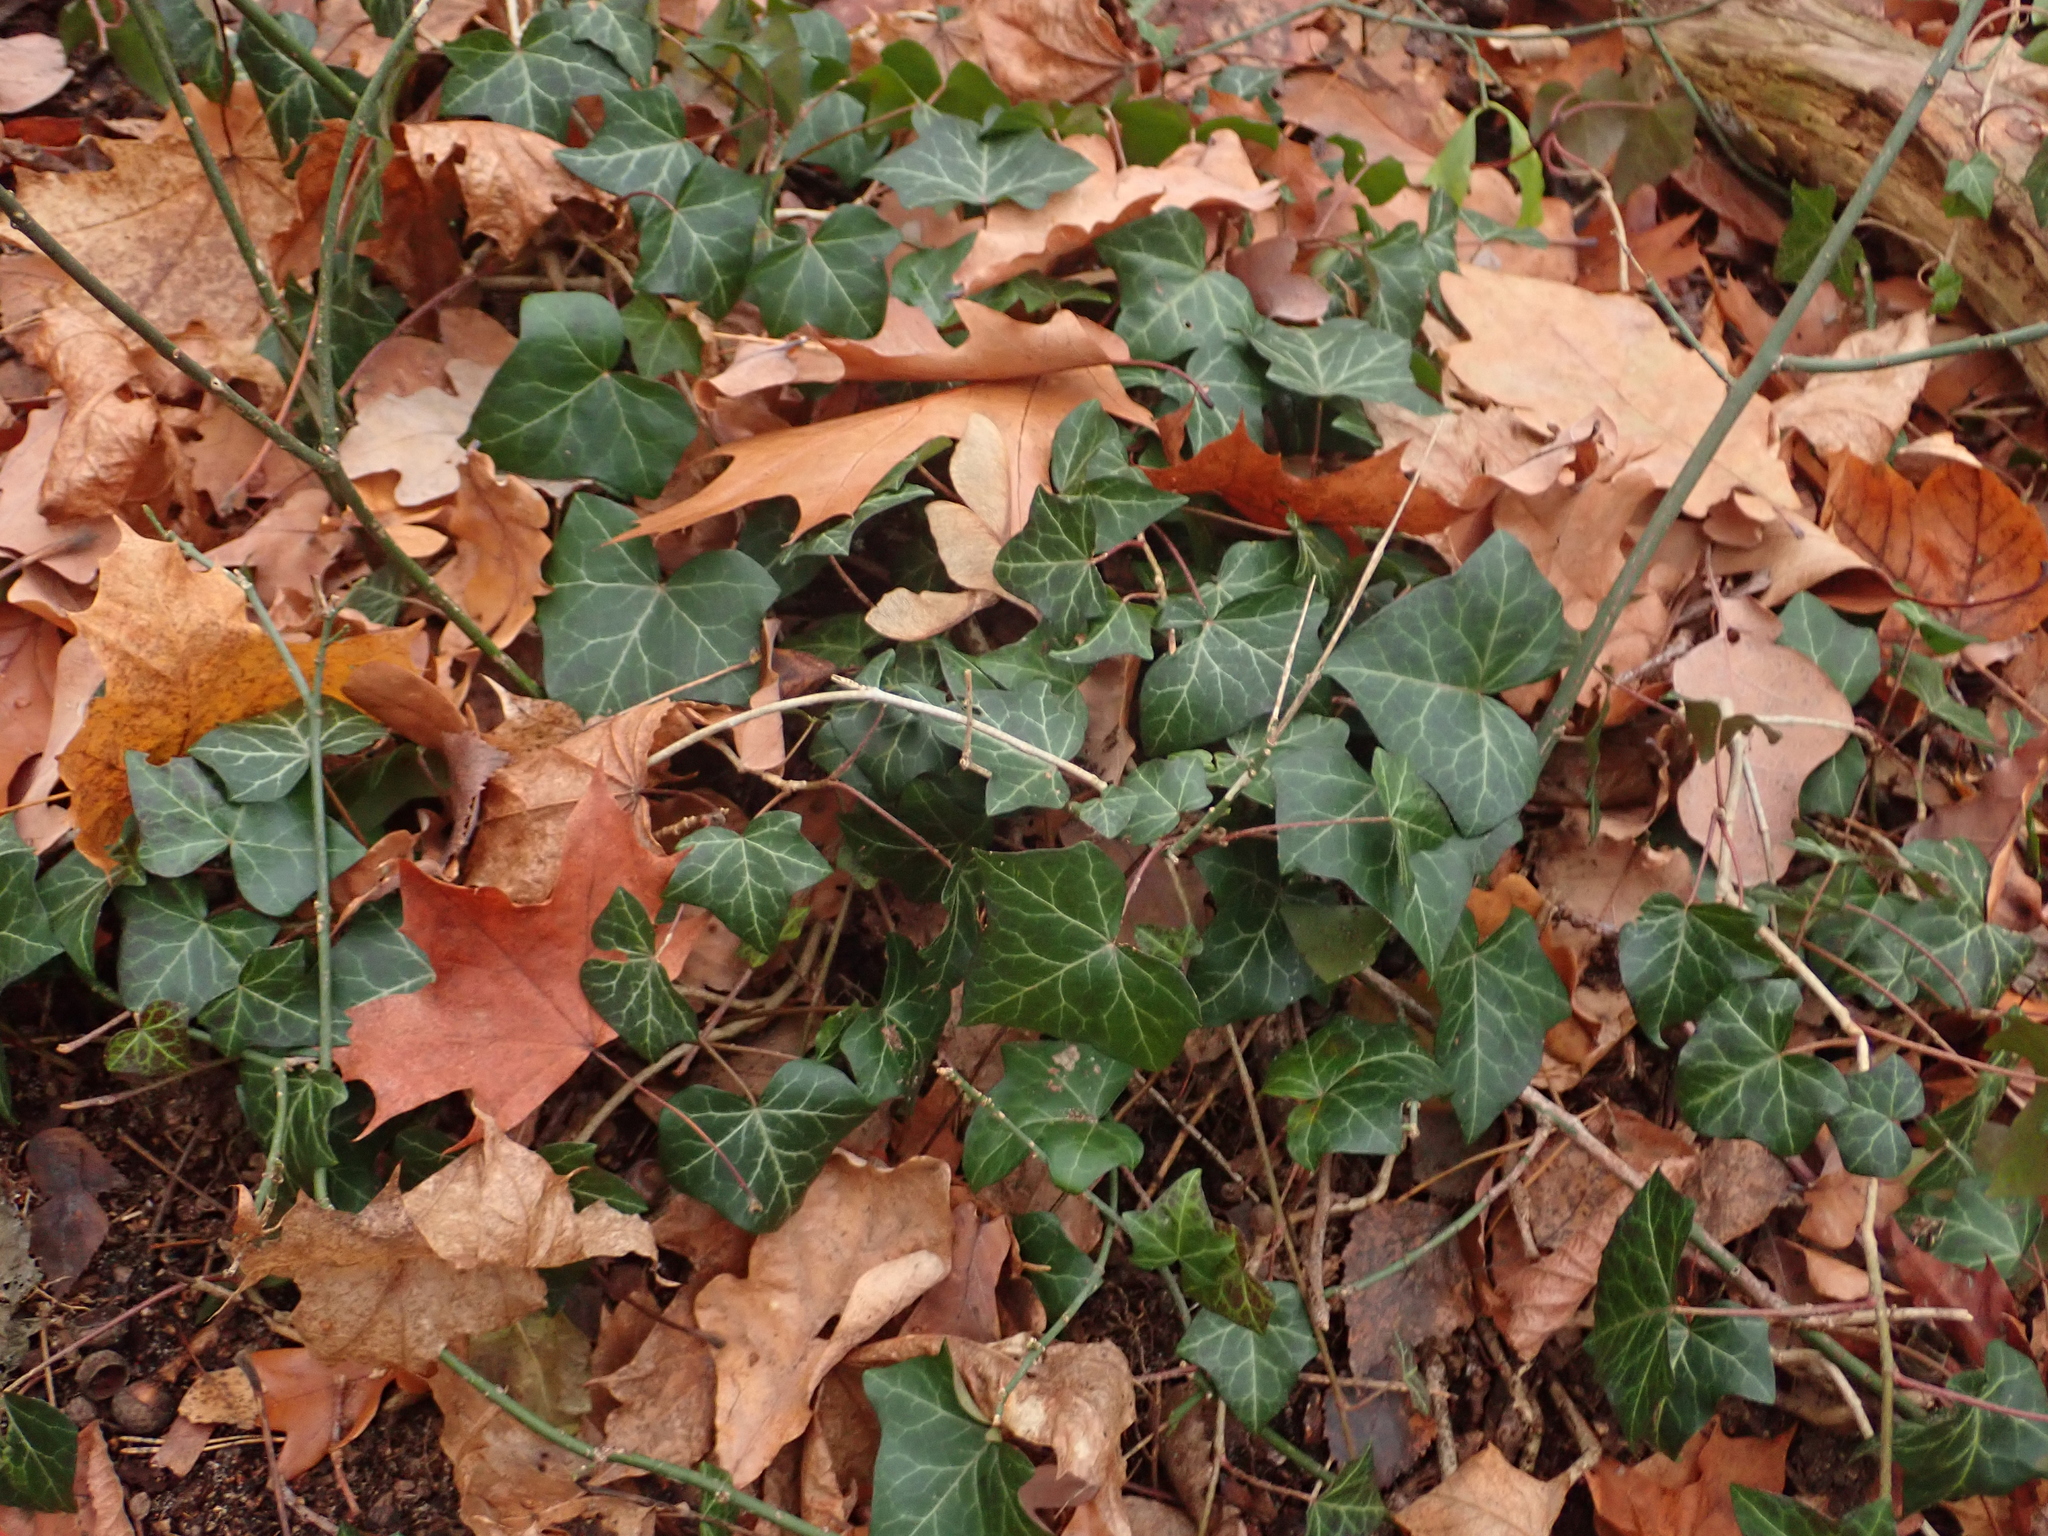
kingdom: Plantae
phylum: Tracheophyta
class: Magnoliopsida
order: Apiales
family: Araliaceae
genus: Hedera
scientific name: Hedera helix
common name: Ivy
